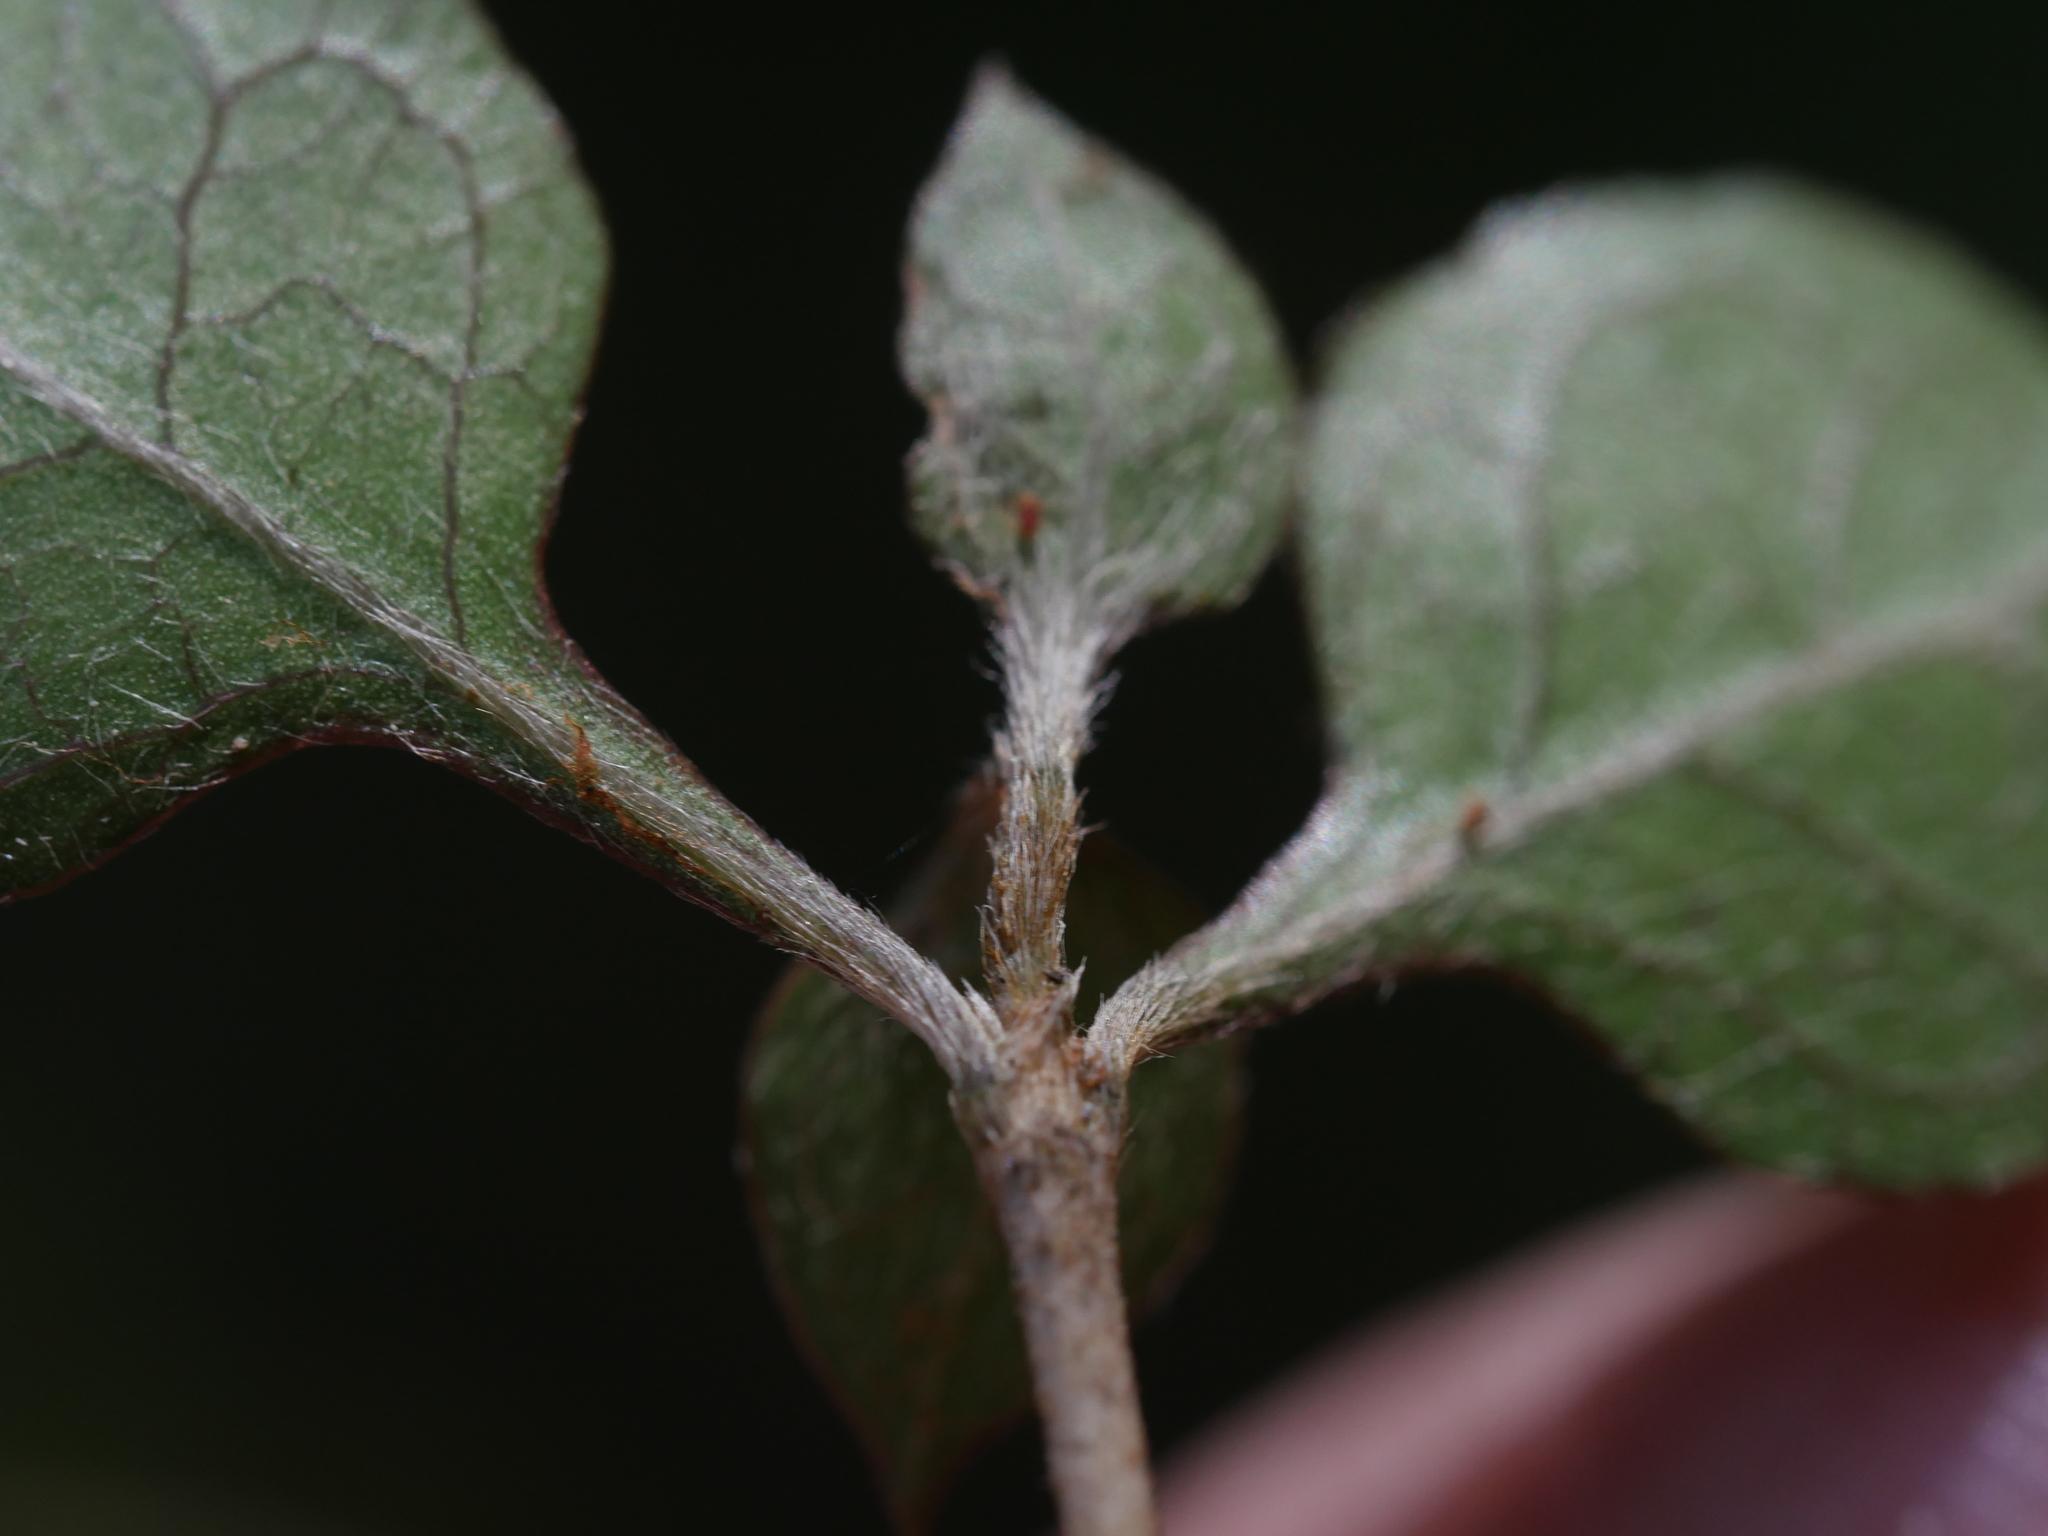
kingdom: Plantae
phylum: Tracheophyta
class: Magnoliopsida
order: Gentianales
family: Rubiaceae
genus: Coprosma
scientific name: Coprosma areolata
